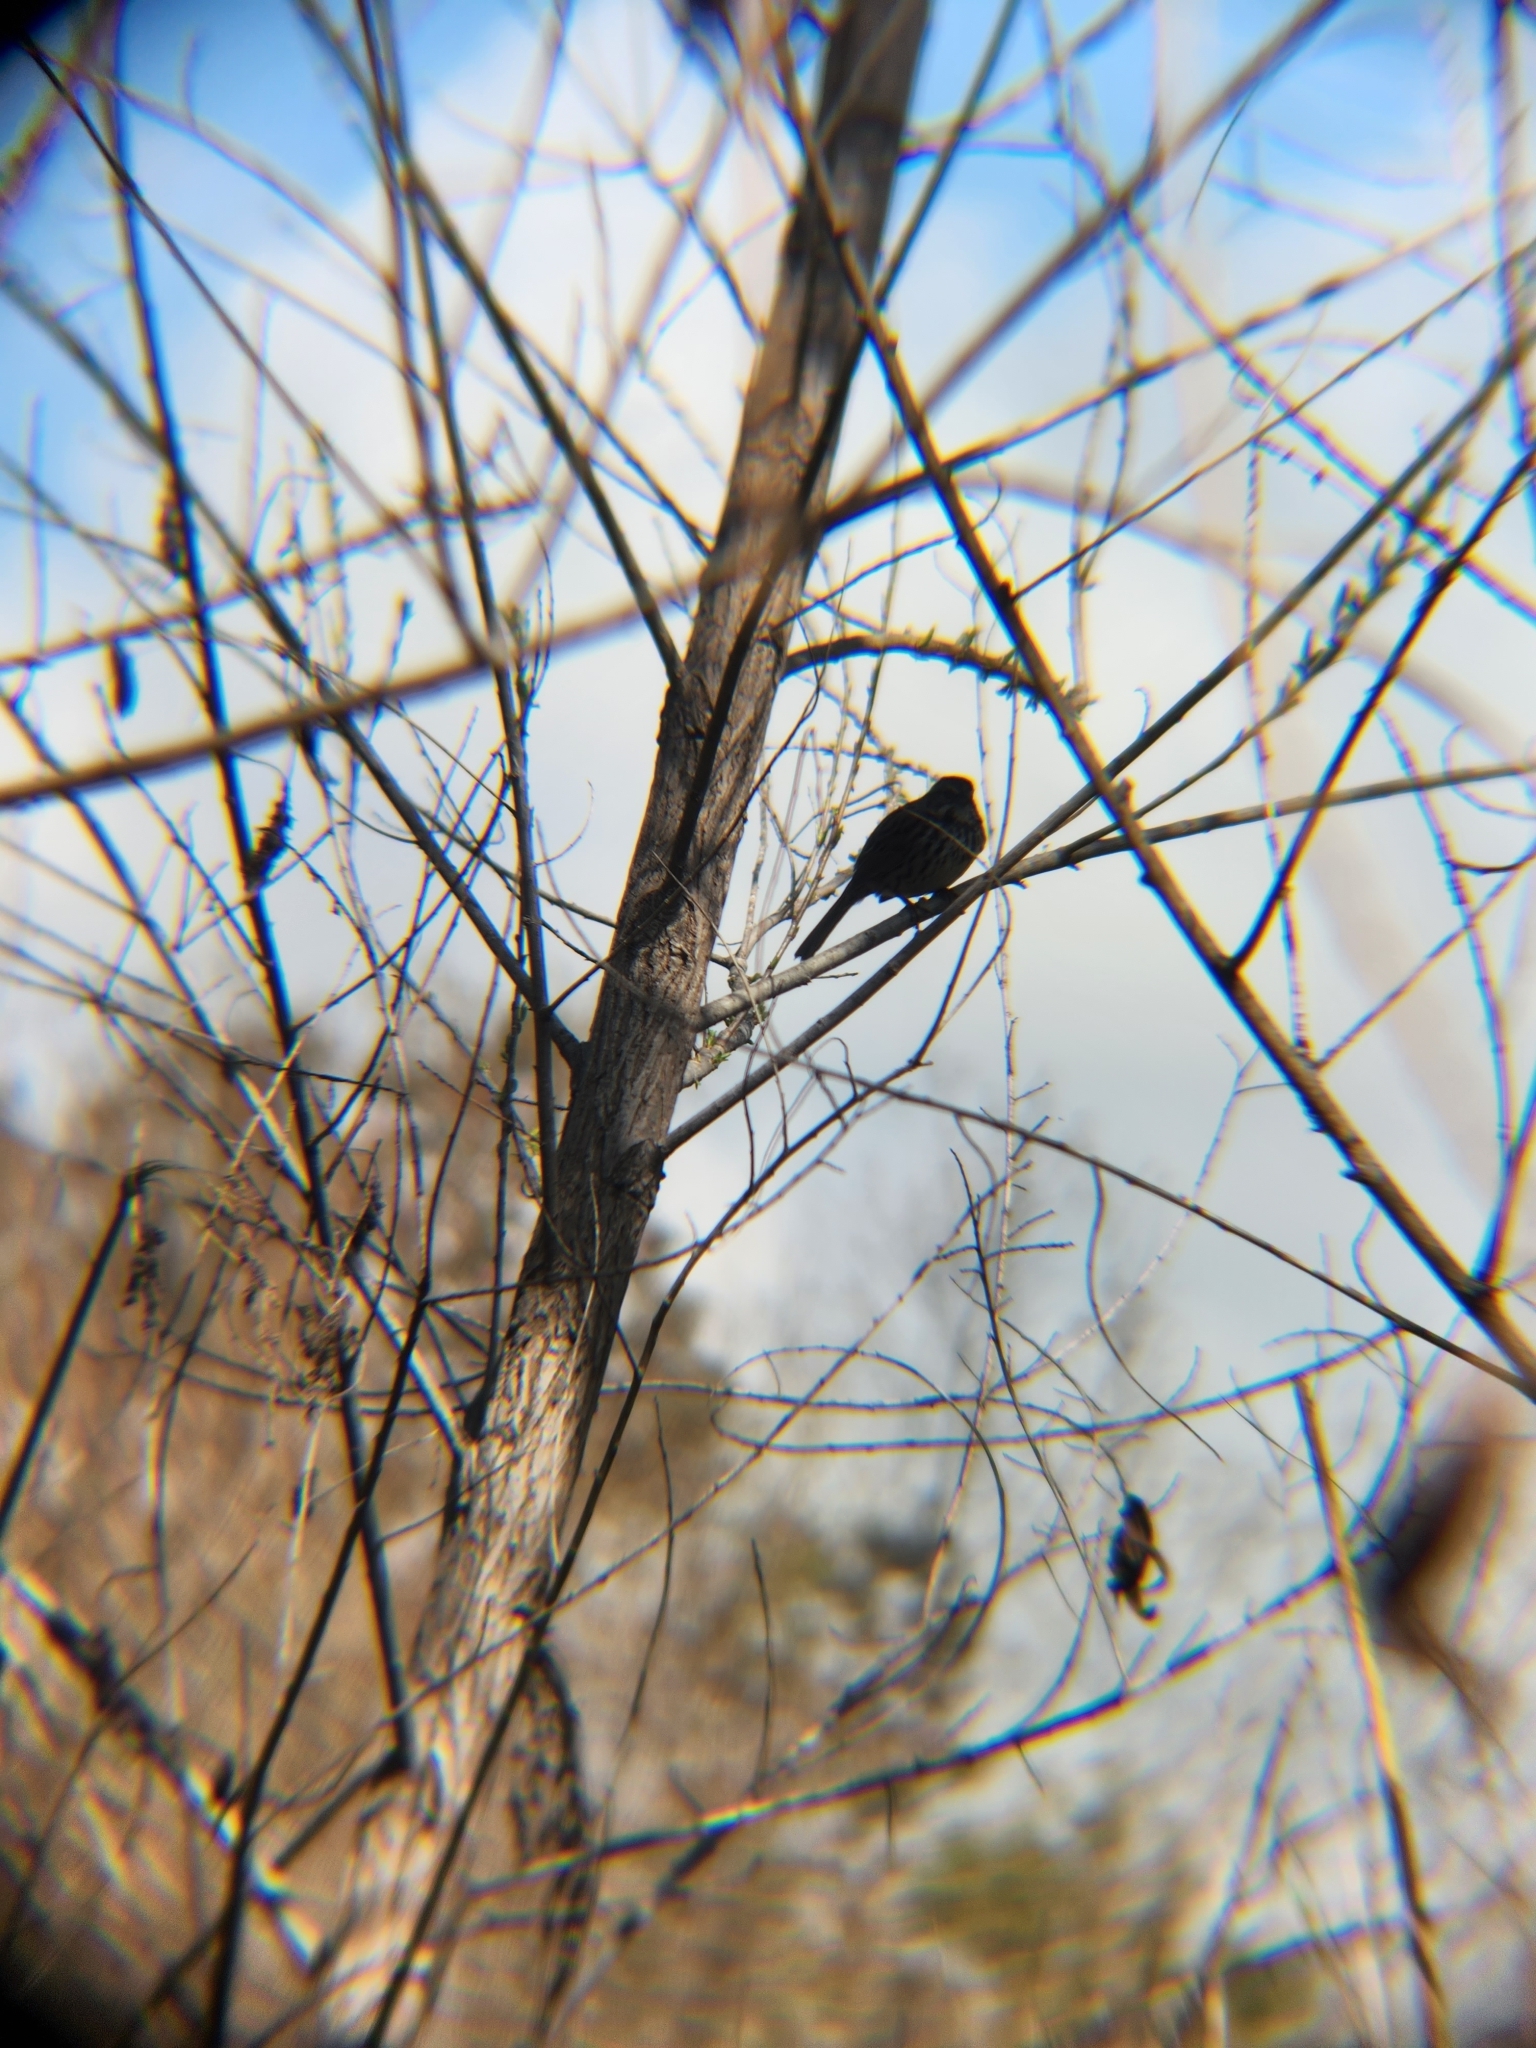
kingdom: Animalia
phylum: Chordata
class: Aves
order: Passeriformes
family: Passerellidae
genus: Melospiza
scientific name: Melospiza melodia
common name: Song sparrow
